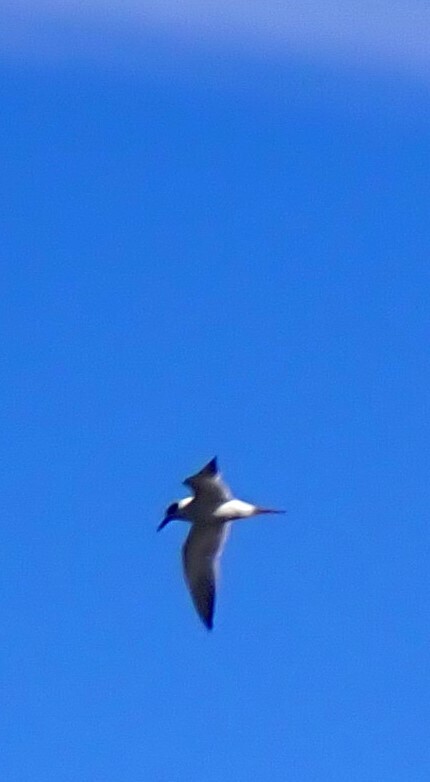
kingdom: Animalia
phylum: Chordata
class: Aves
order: Charadriiformes
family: Laridae
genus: Sterna
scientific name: Sterna forsteri
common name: Forster's tern
